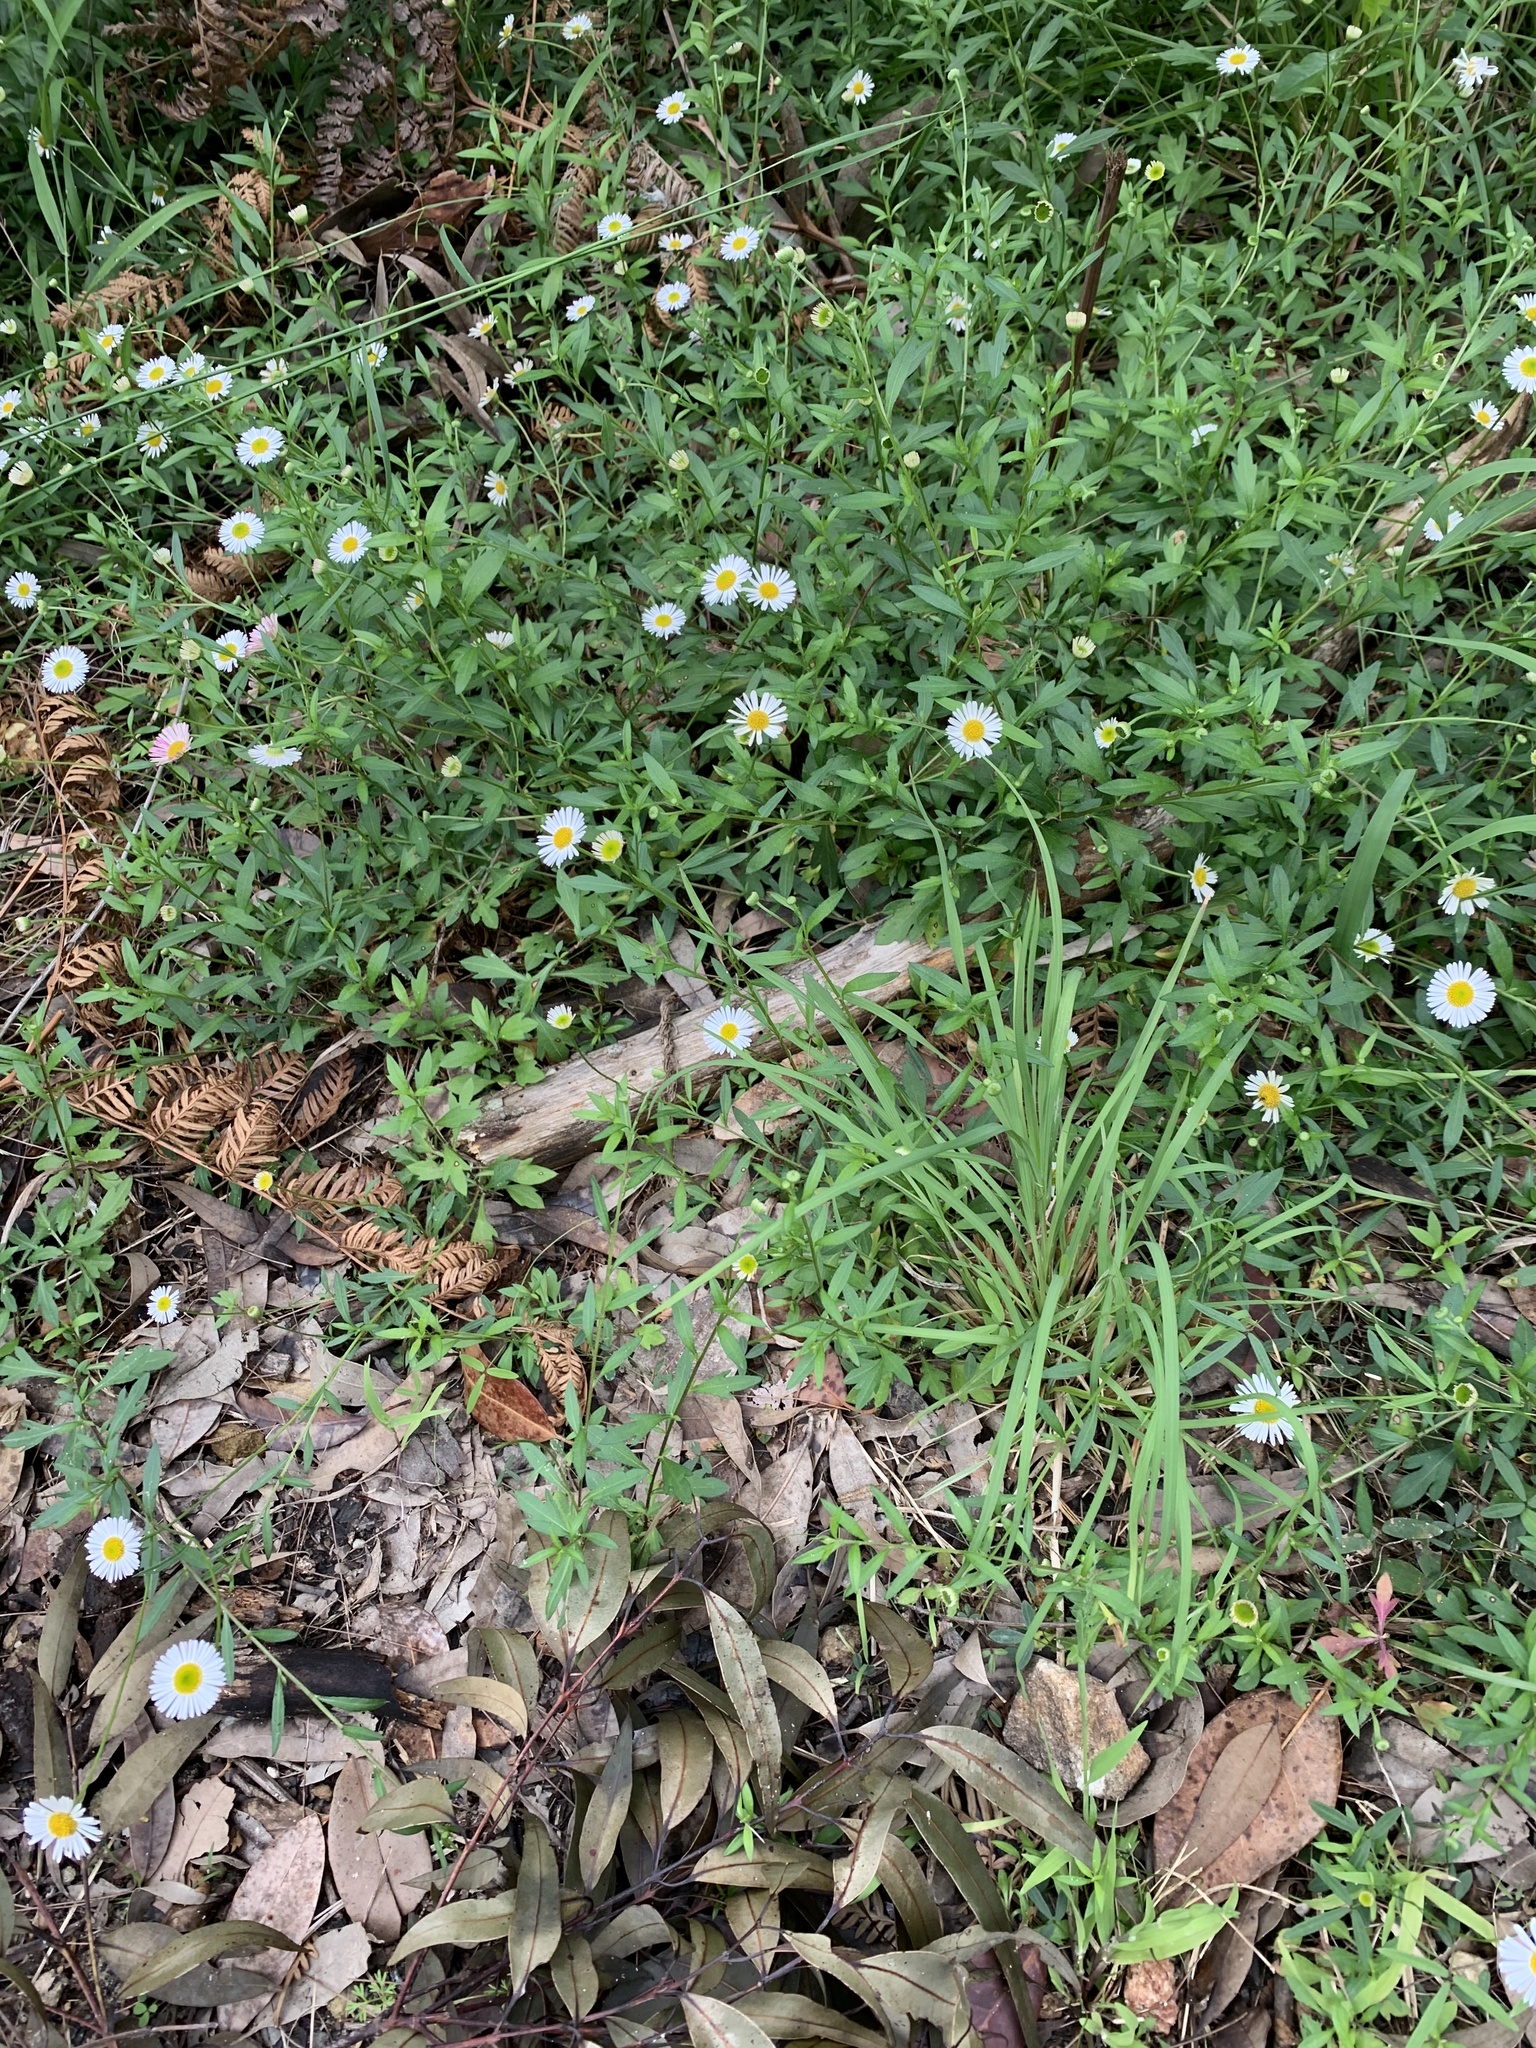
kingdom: Plantae
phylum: Tracheophyta
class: Magnoliopsida
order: Asterales
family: Asteraceae
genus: Erigeron
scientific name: Erigeron karvinskianus
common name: Mexican fleabane
